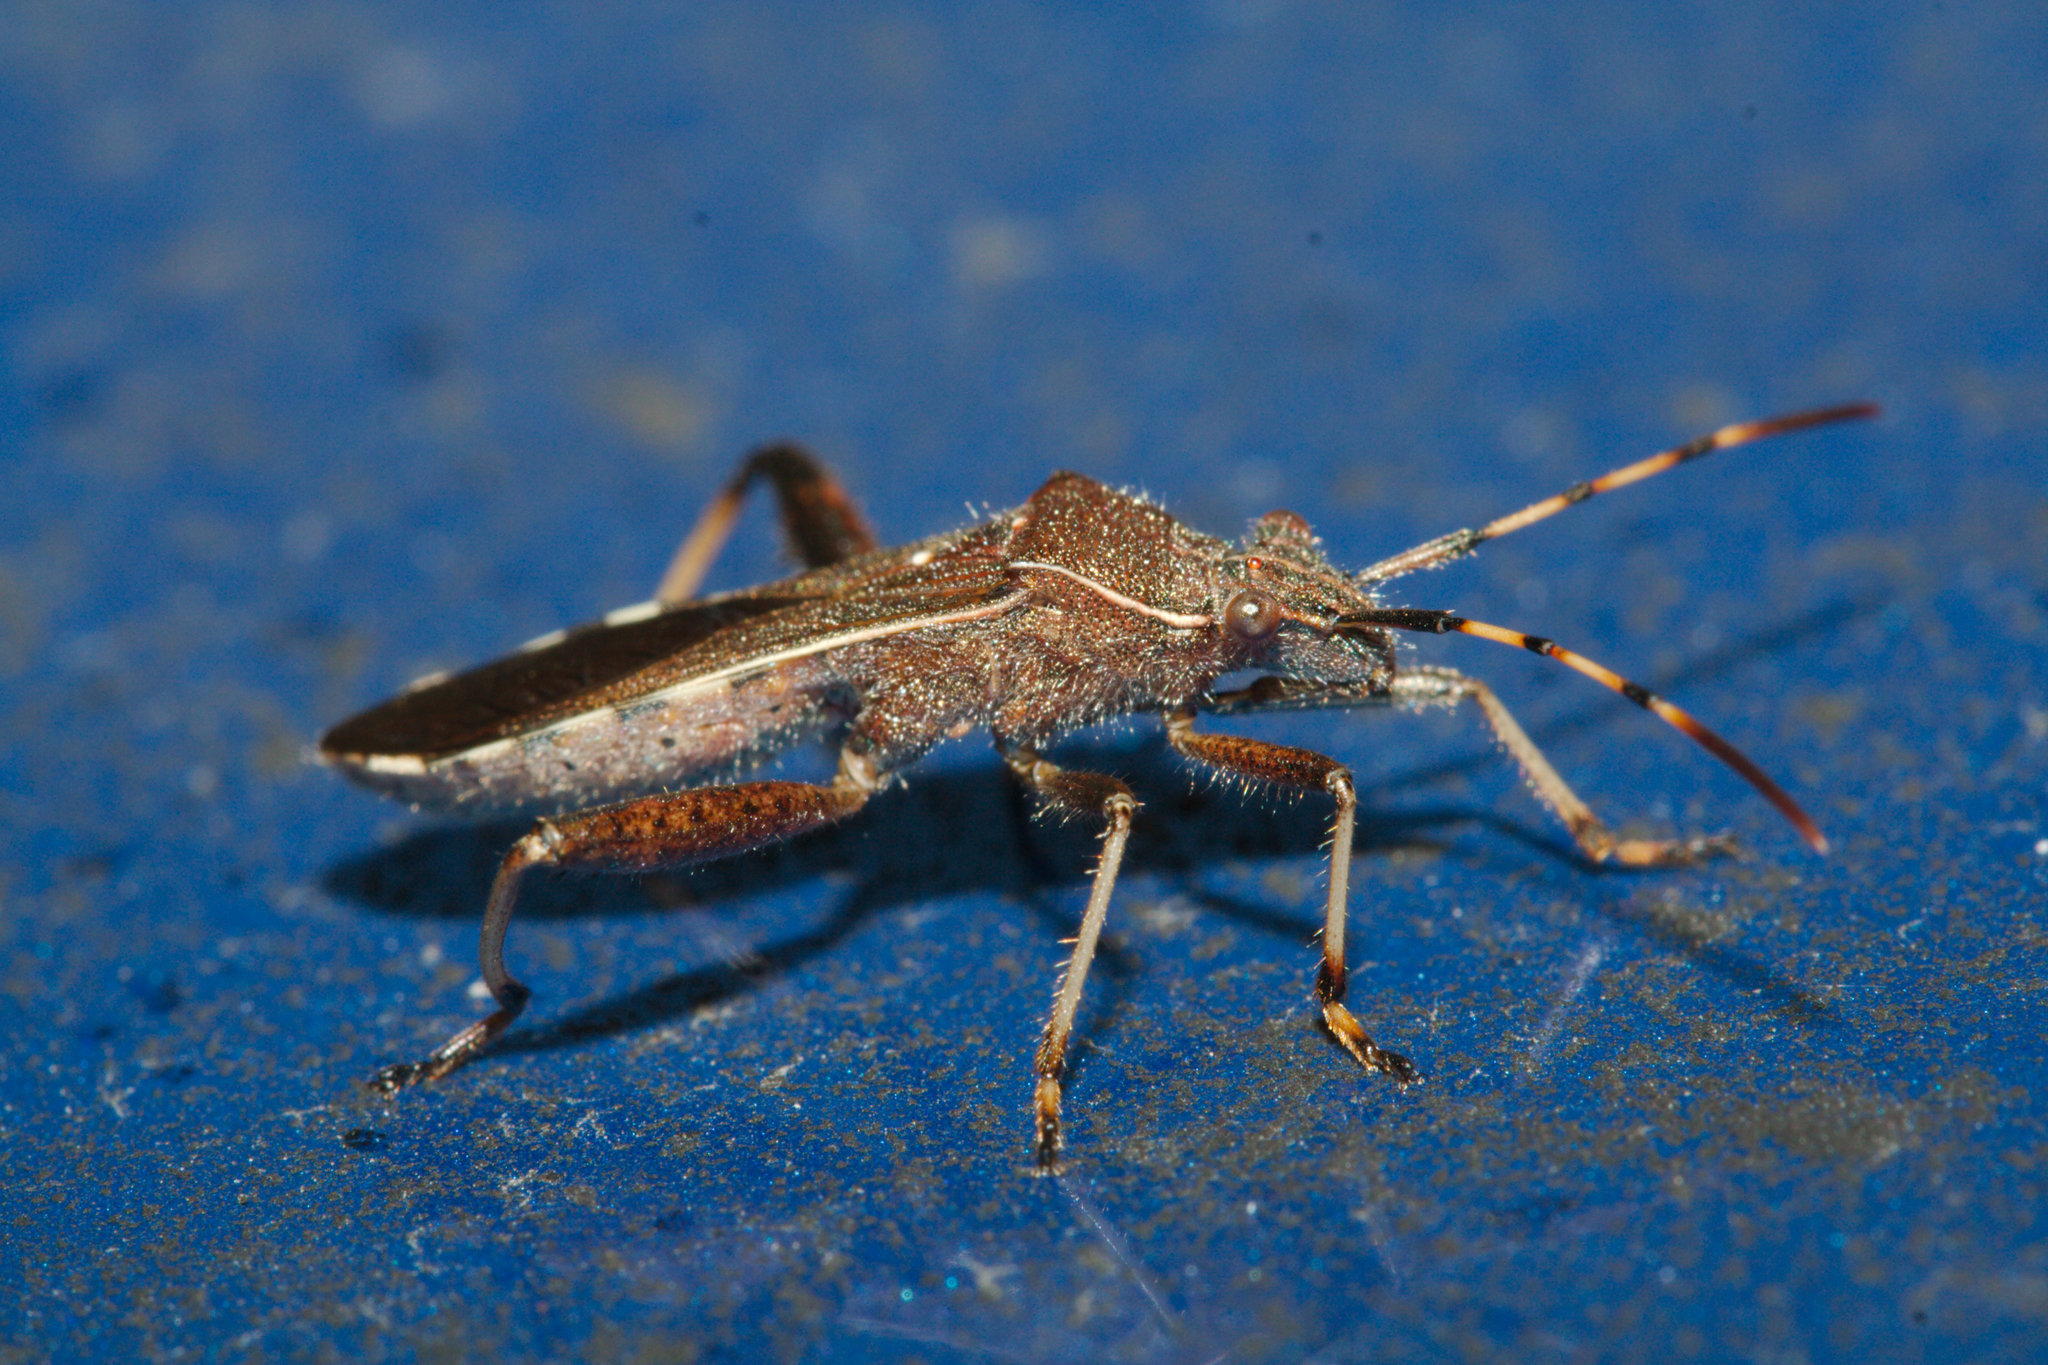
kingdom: Animalia
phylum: Arthropoda
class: Insecta
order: Hemiptera
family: Alydidae
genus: Camptopus
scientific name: Camptopus lateralis
